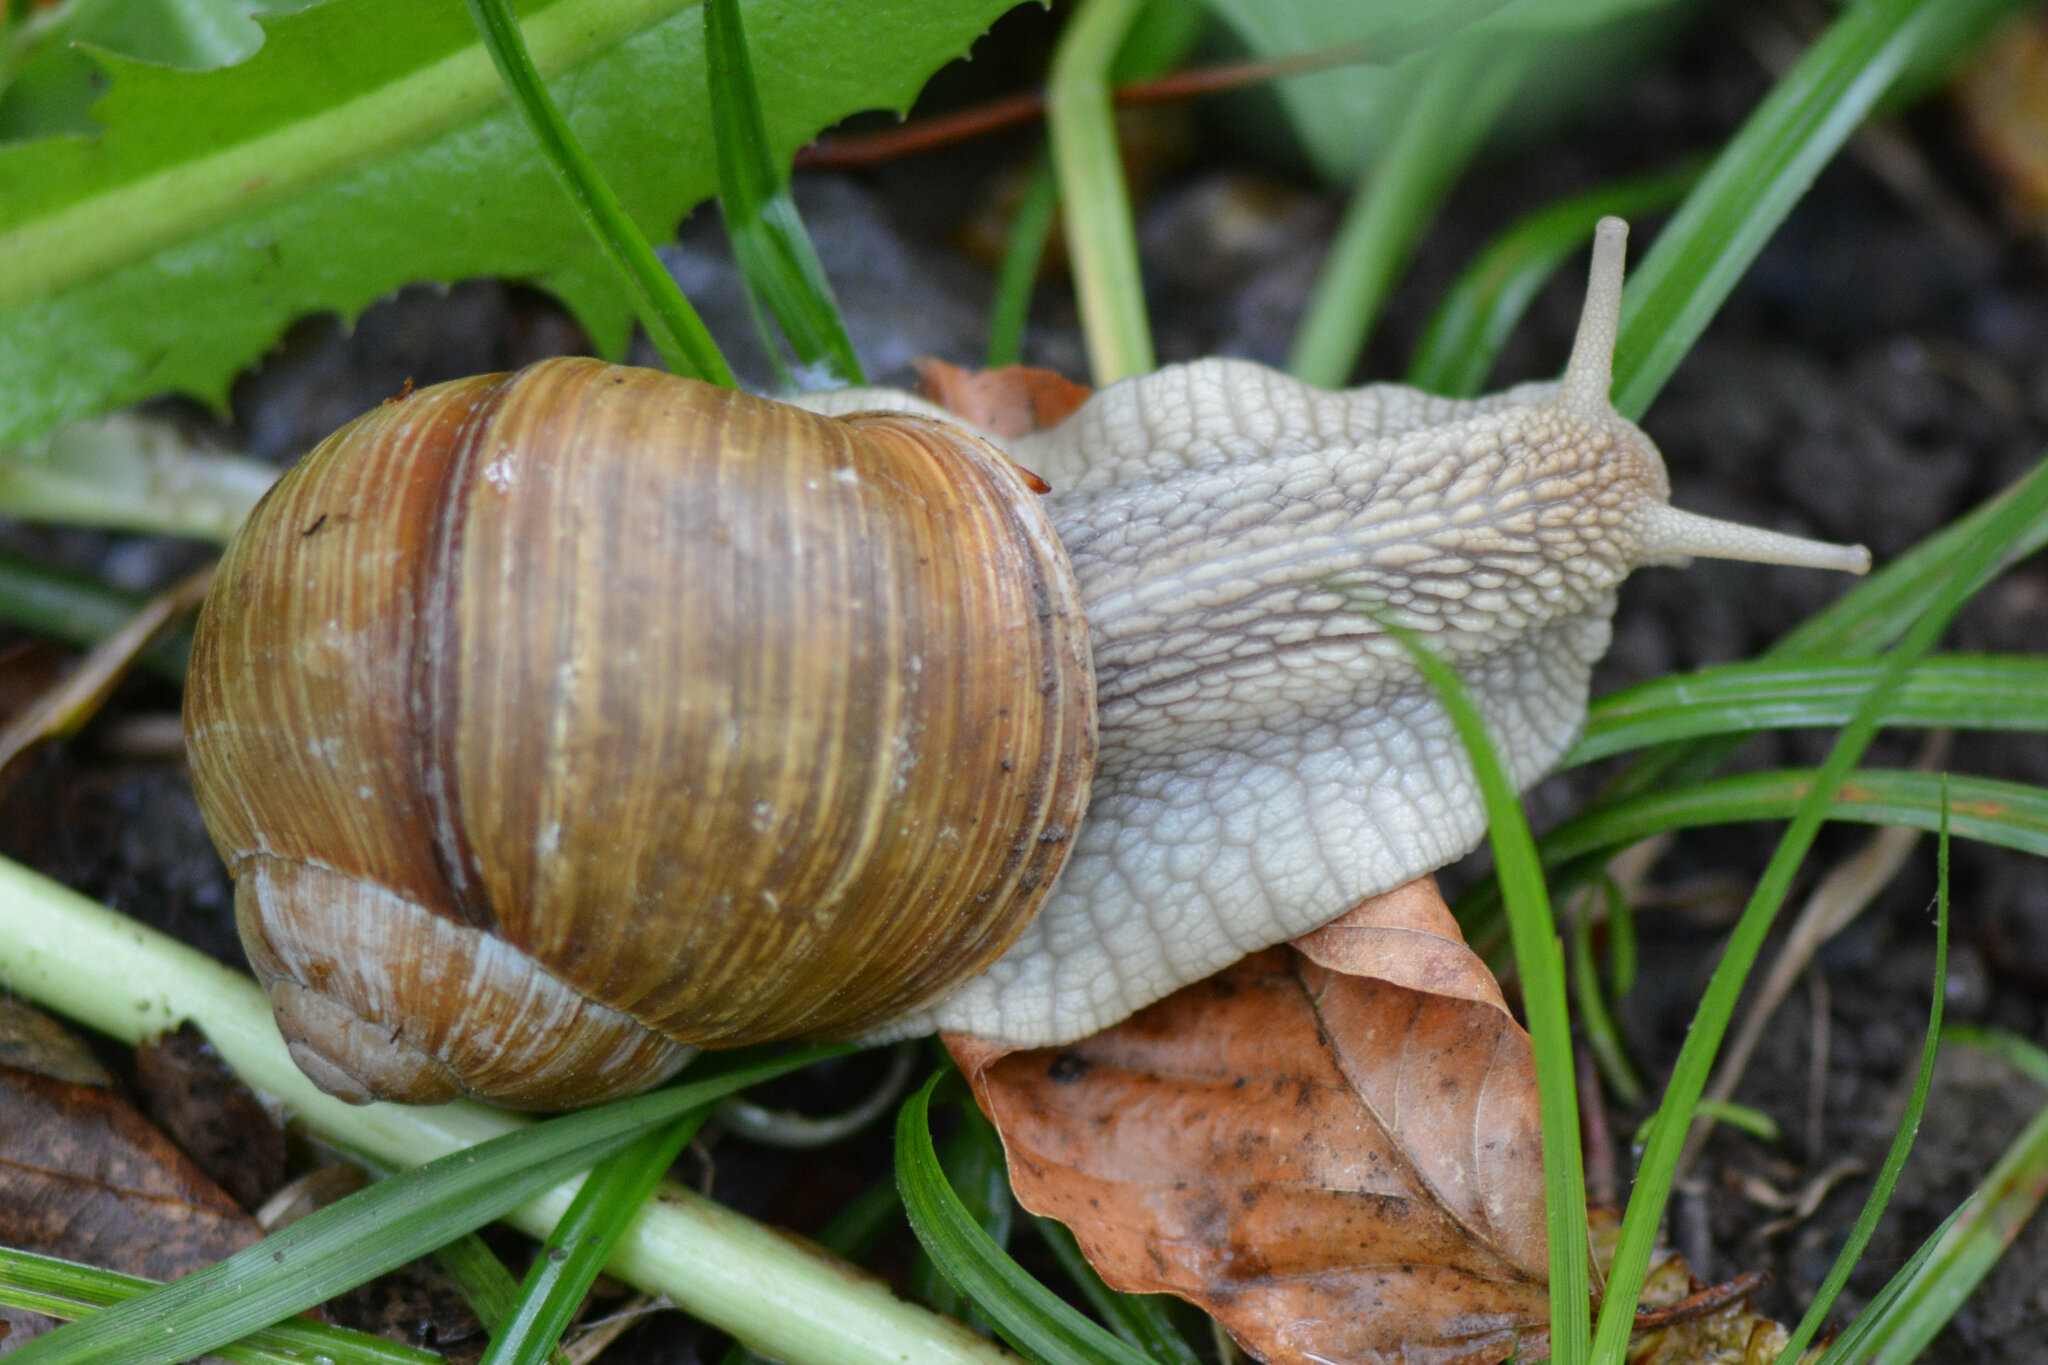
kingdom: Animalia
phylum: Mollusca
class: Gastropoda
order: Stylommatophora
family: Helicidae
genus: Helix
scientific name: Helix pomatia
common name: Roman snail
